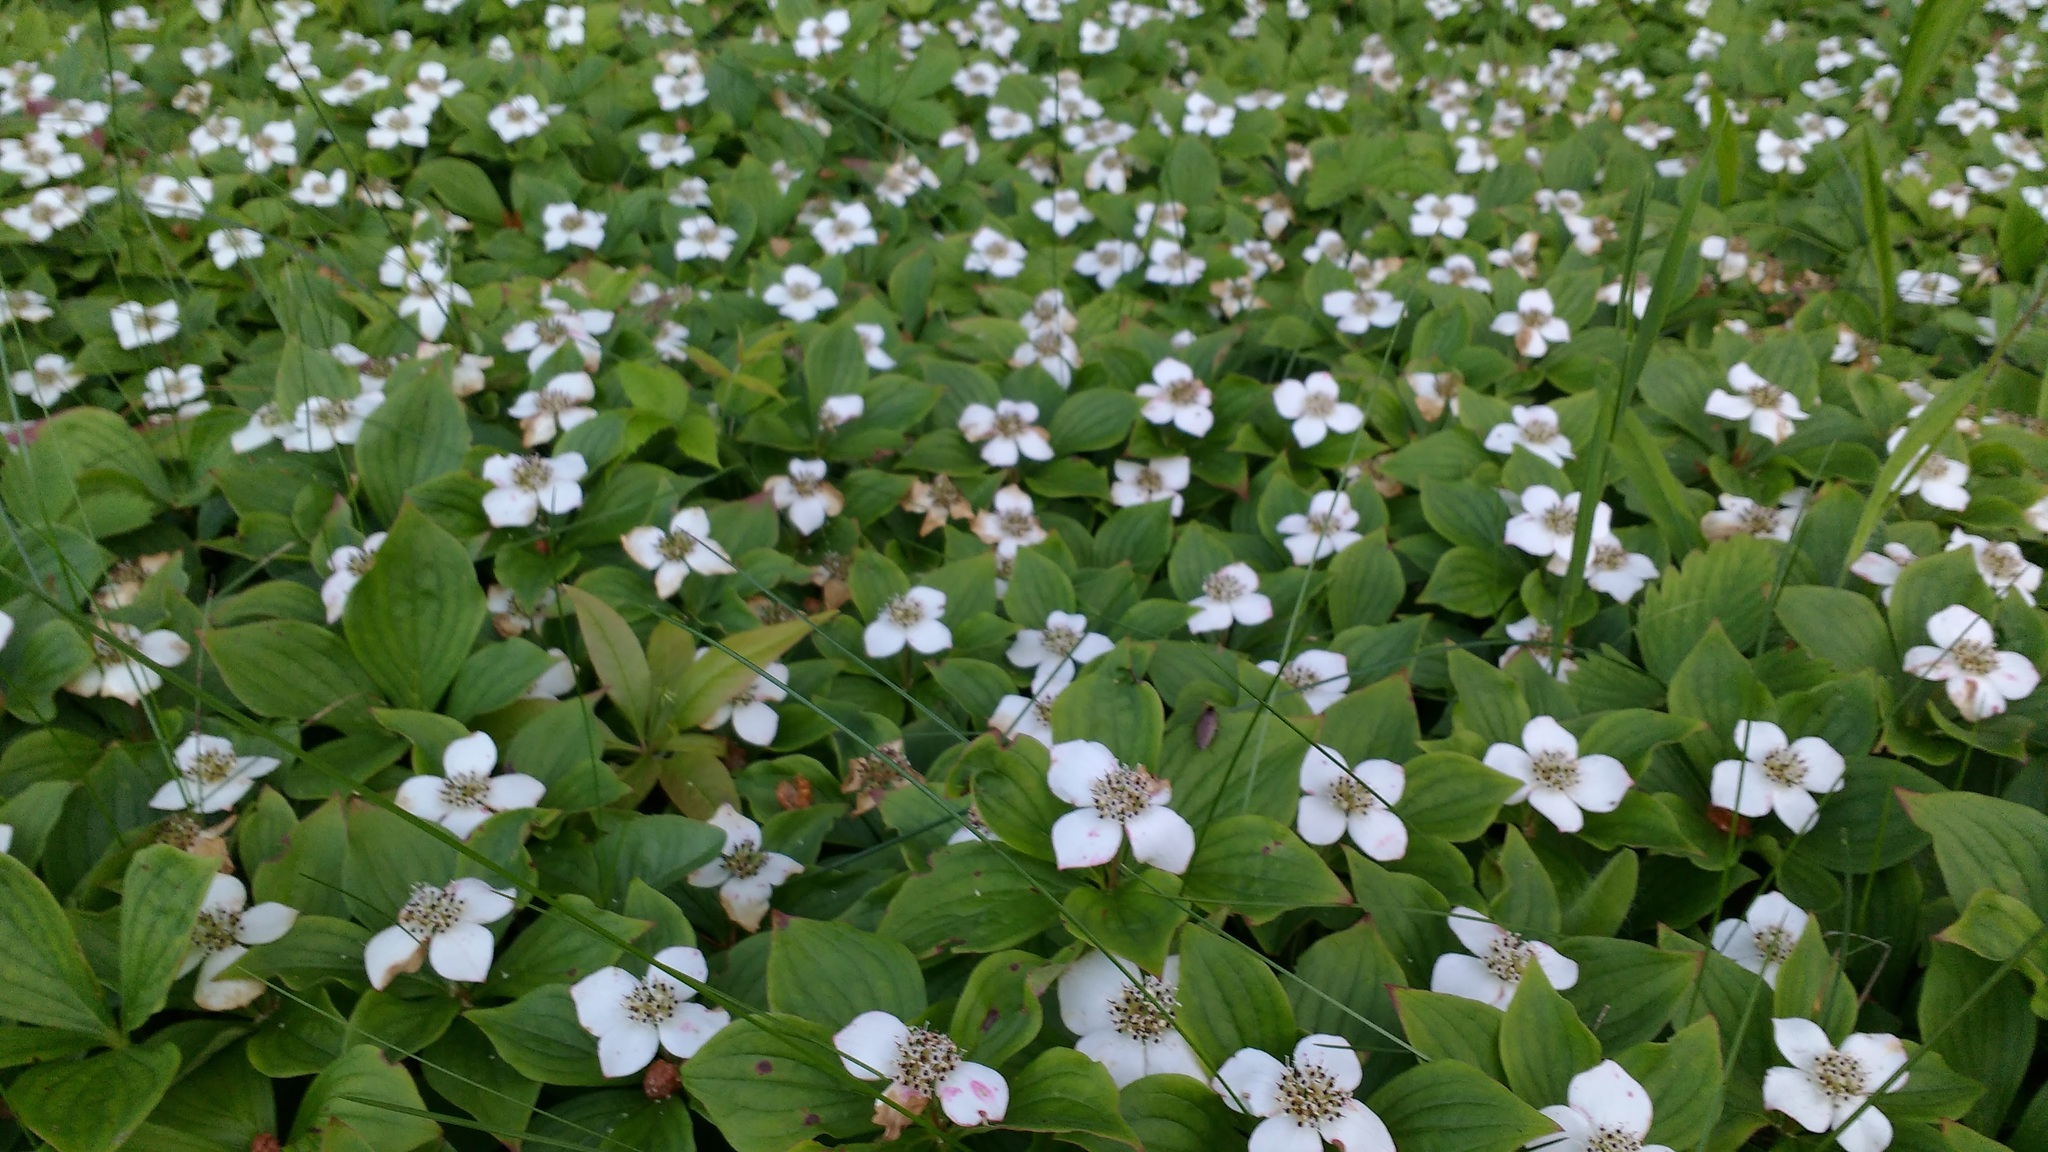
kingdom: Plantae
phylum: Tracheophyta
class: Magnoliopsida
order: Cornales
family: Cornaceae
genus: Cornus
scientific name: Cornus canadensis
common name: Creeping dogwood
